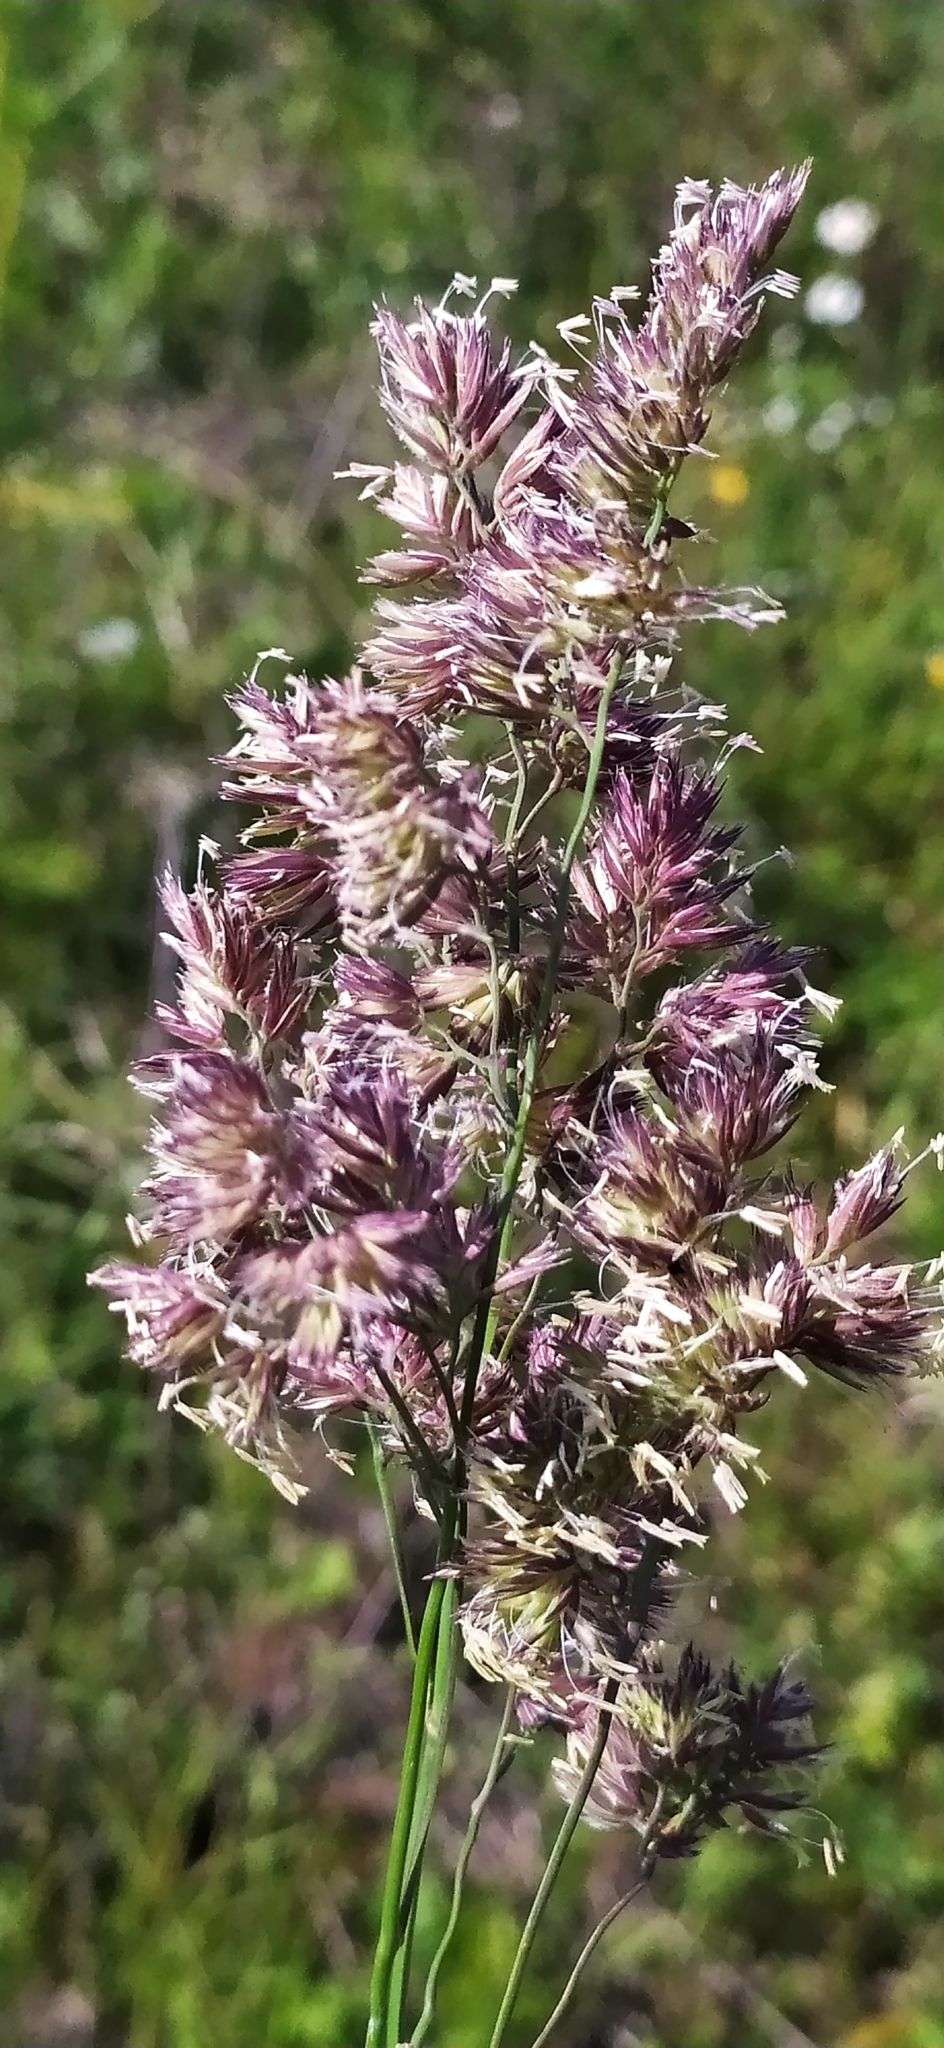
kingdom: Plantae
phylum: Tracheophyta
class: Liliopsida
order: Poales
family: Poaceae
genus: Dactylis
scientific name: Dactylis glomerata
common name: Orchardgrass
